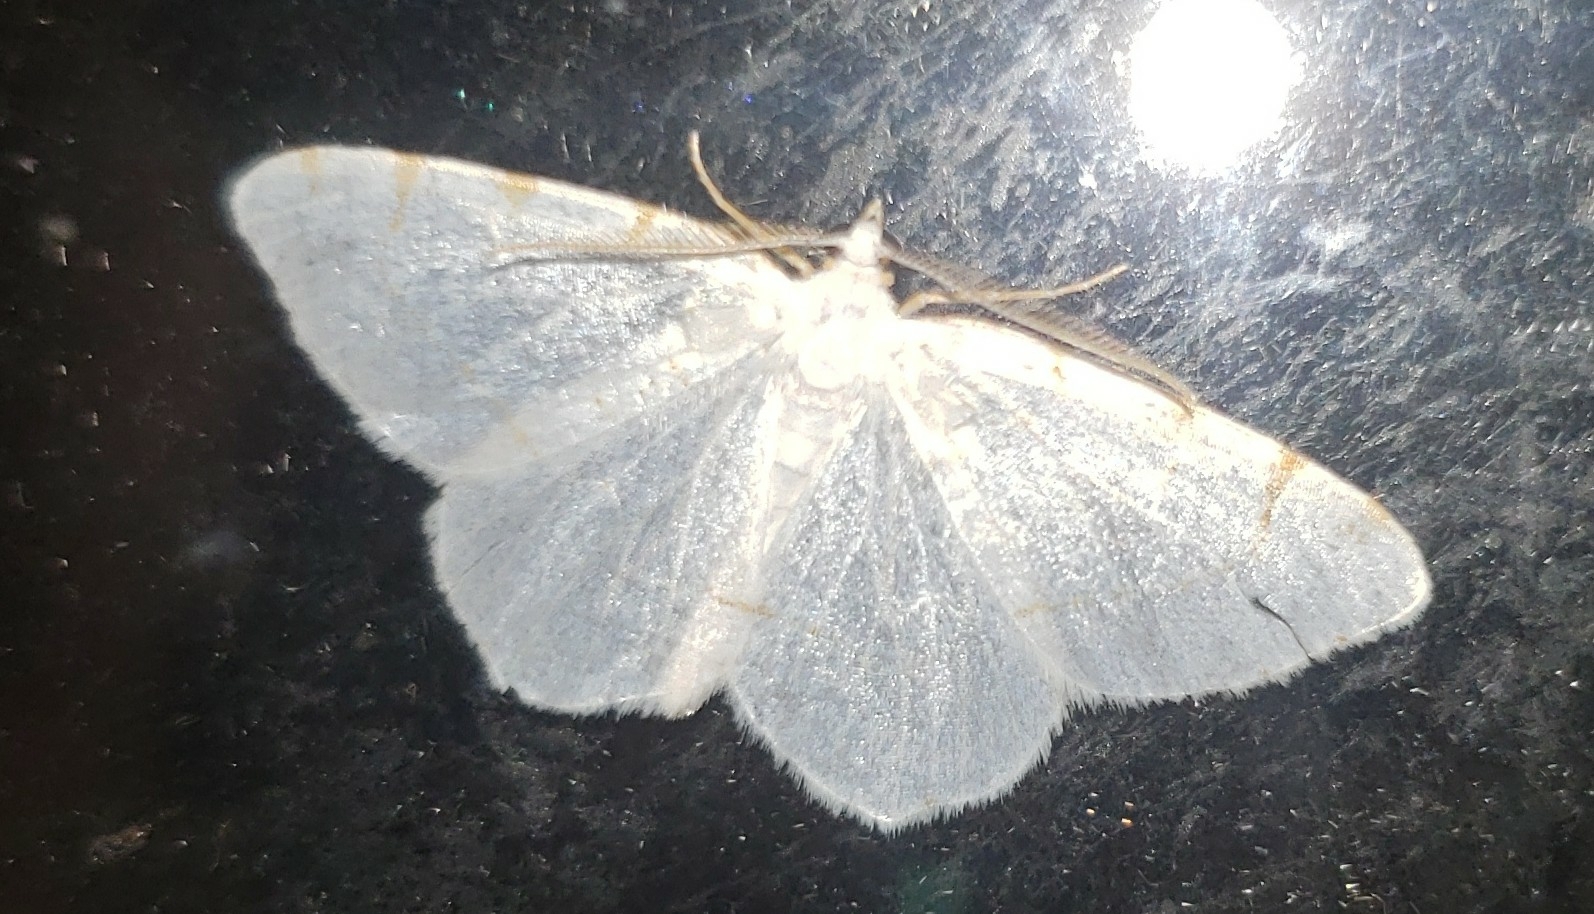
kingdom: Animalia
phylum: Arthropoda
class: Insecta
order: Lepidoptera
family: Geometridae
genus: Macaria
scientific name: Macaria pustularia
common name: Lesser maple spanworm moth
